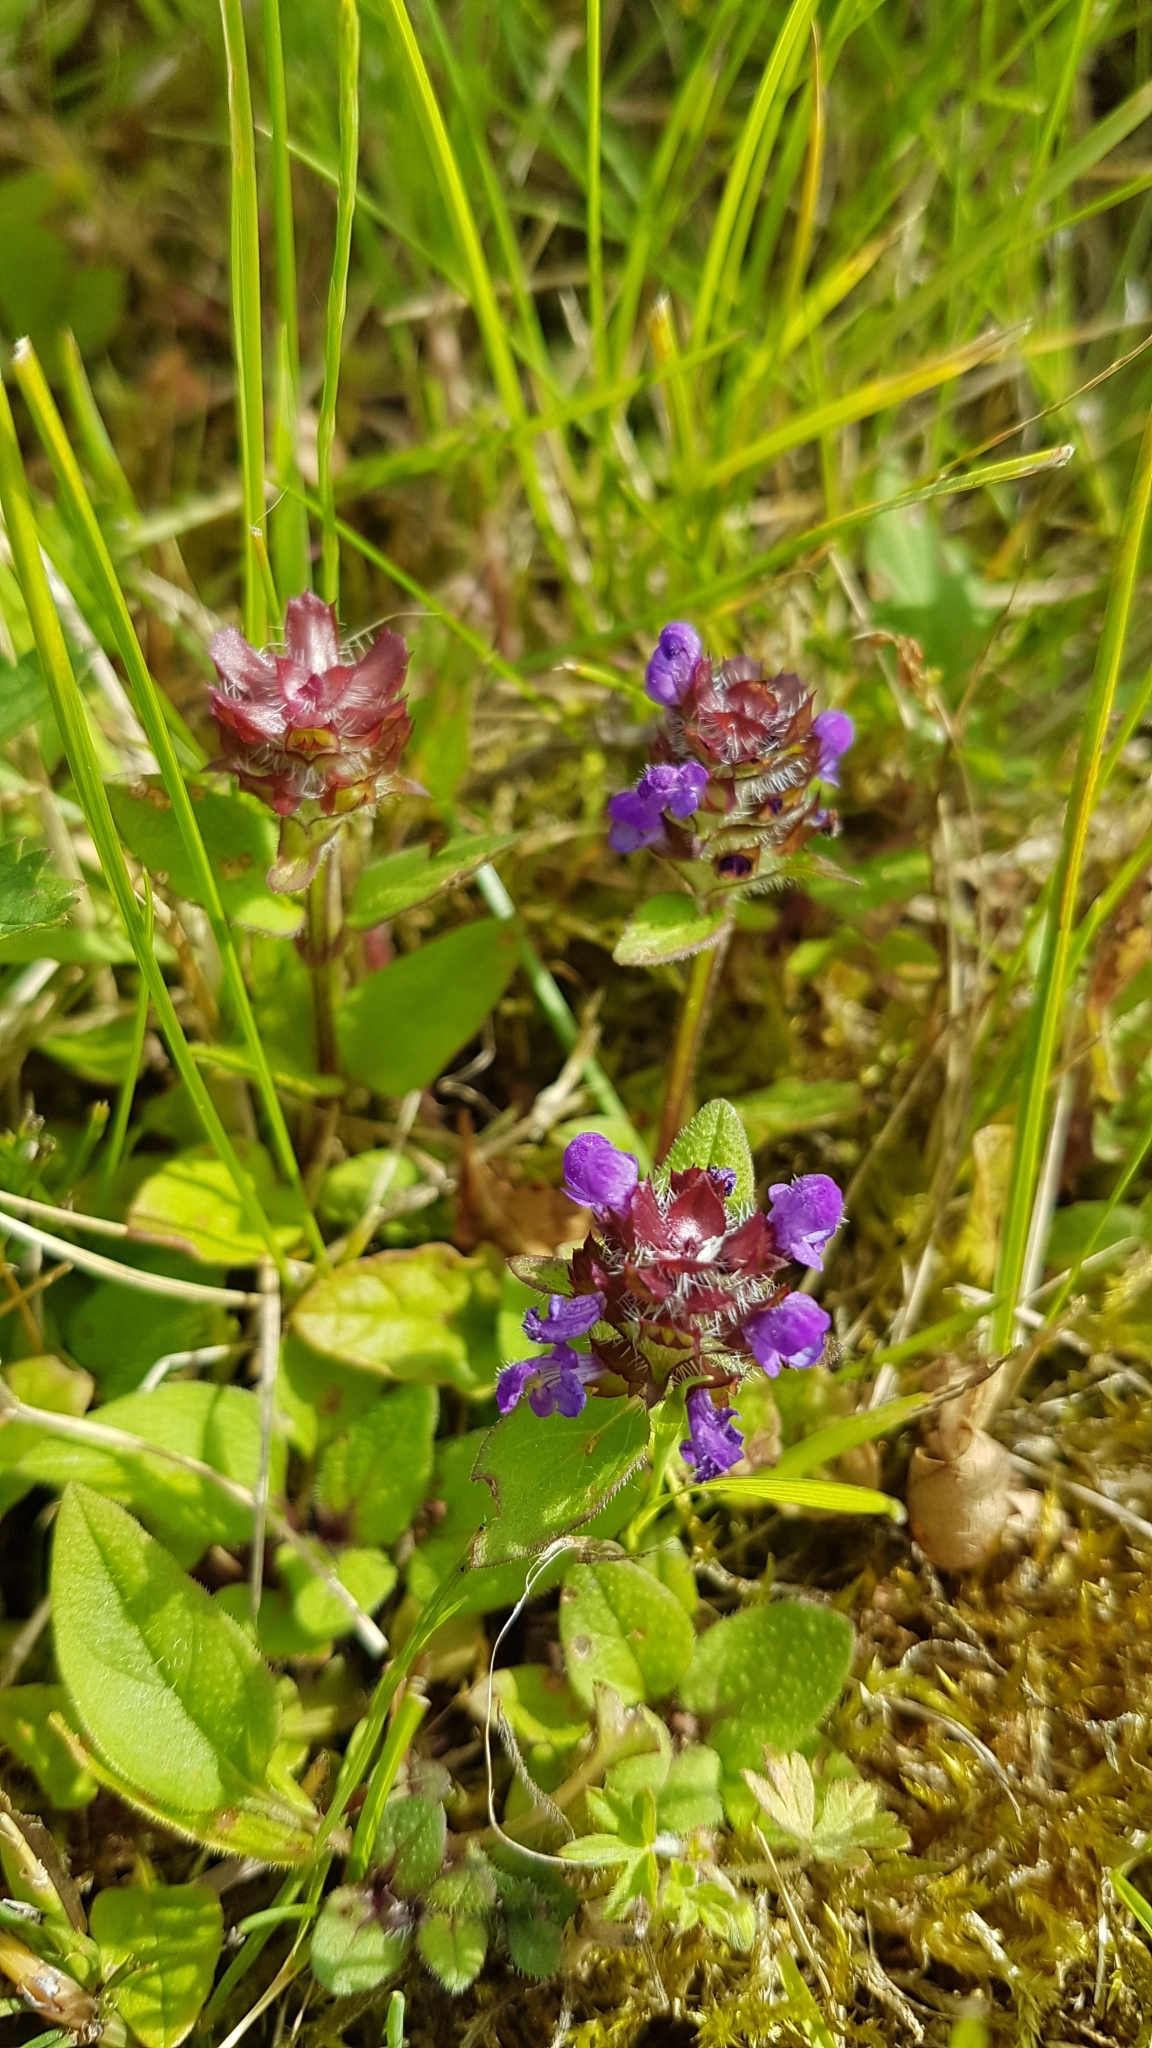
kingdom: Plantae
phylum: Tracheophyta
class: Magnoliopsida
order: Lamiales
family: Lamiaceae
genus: Prunella
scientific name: Prunella vulgaris
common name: Heal-all
